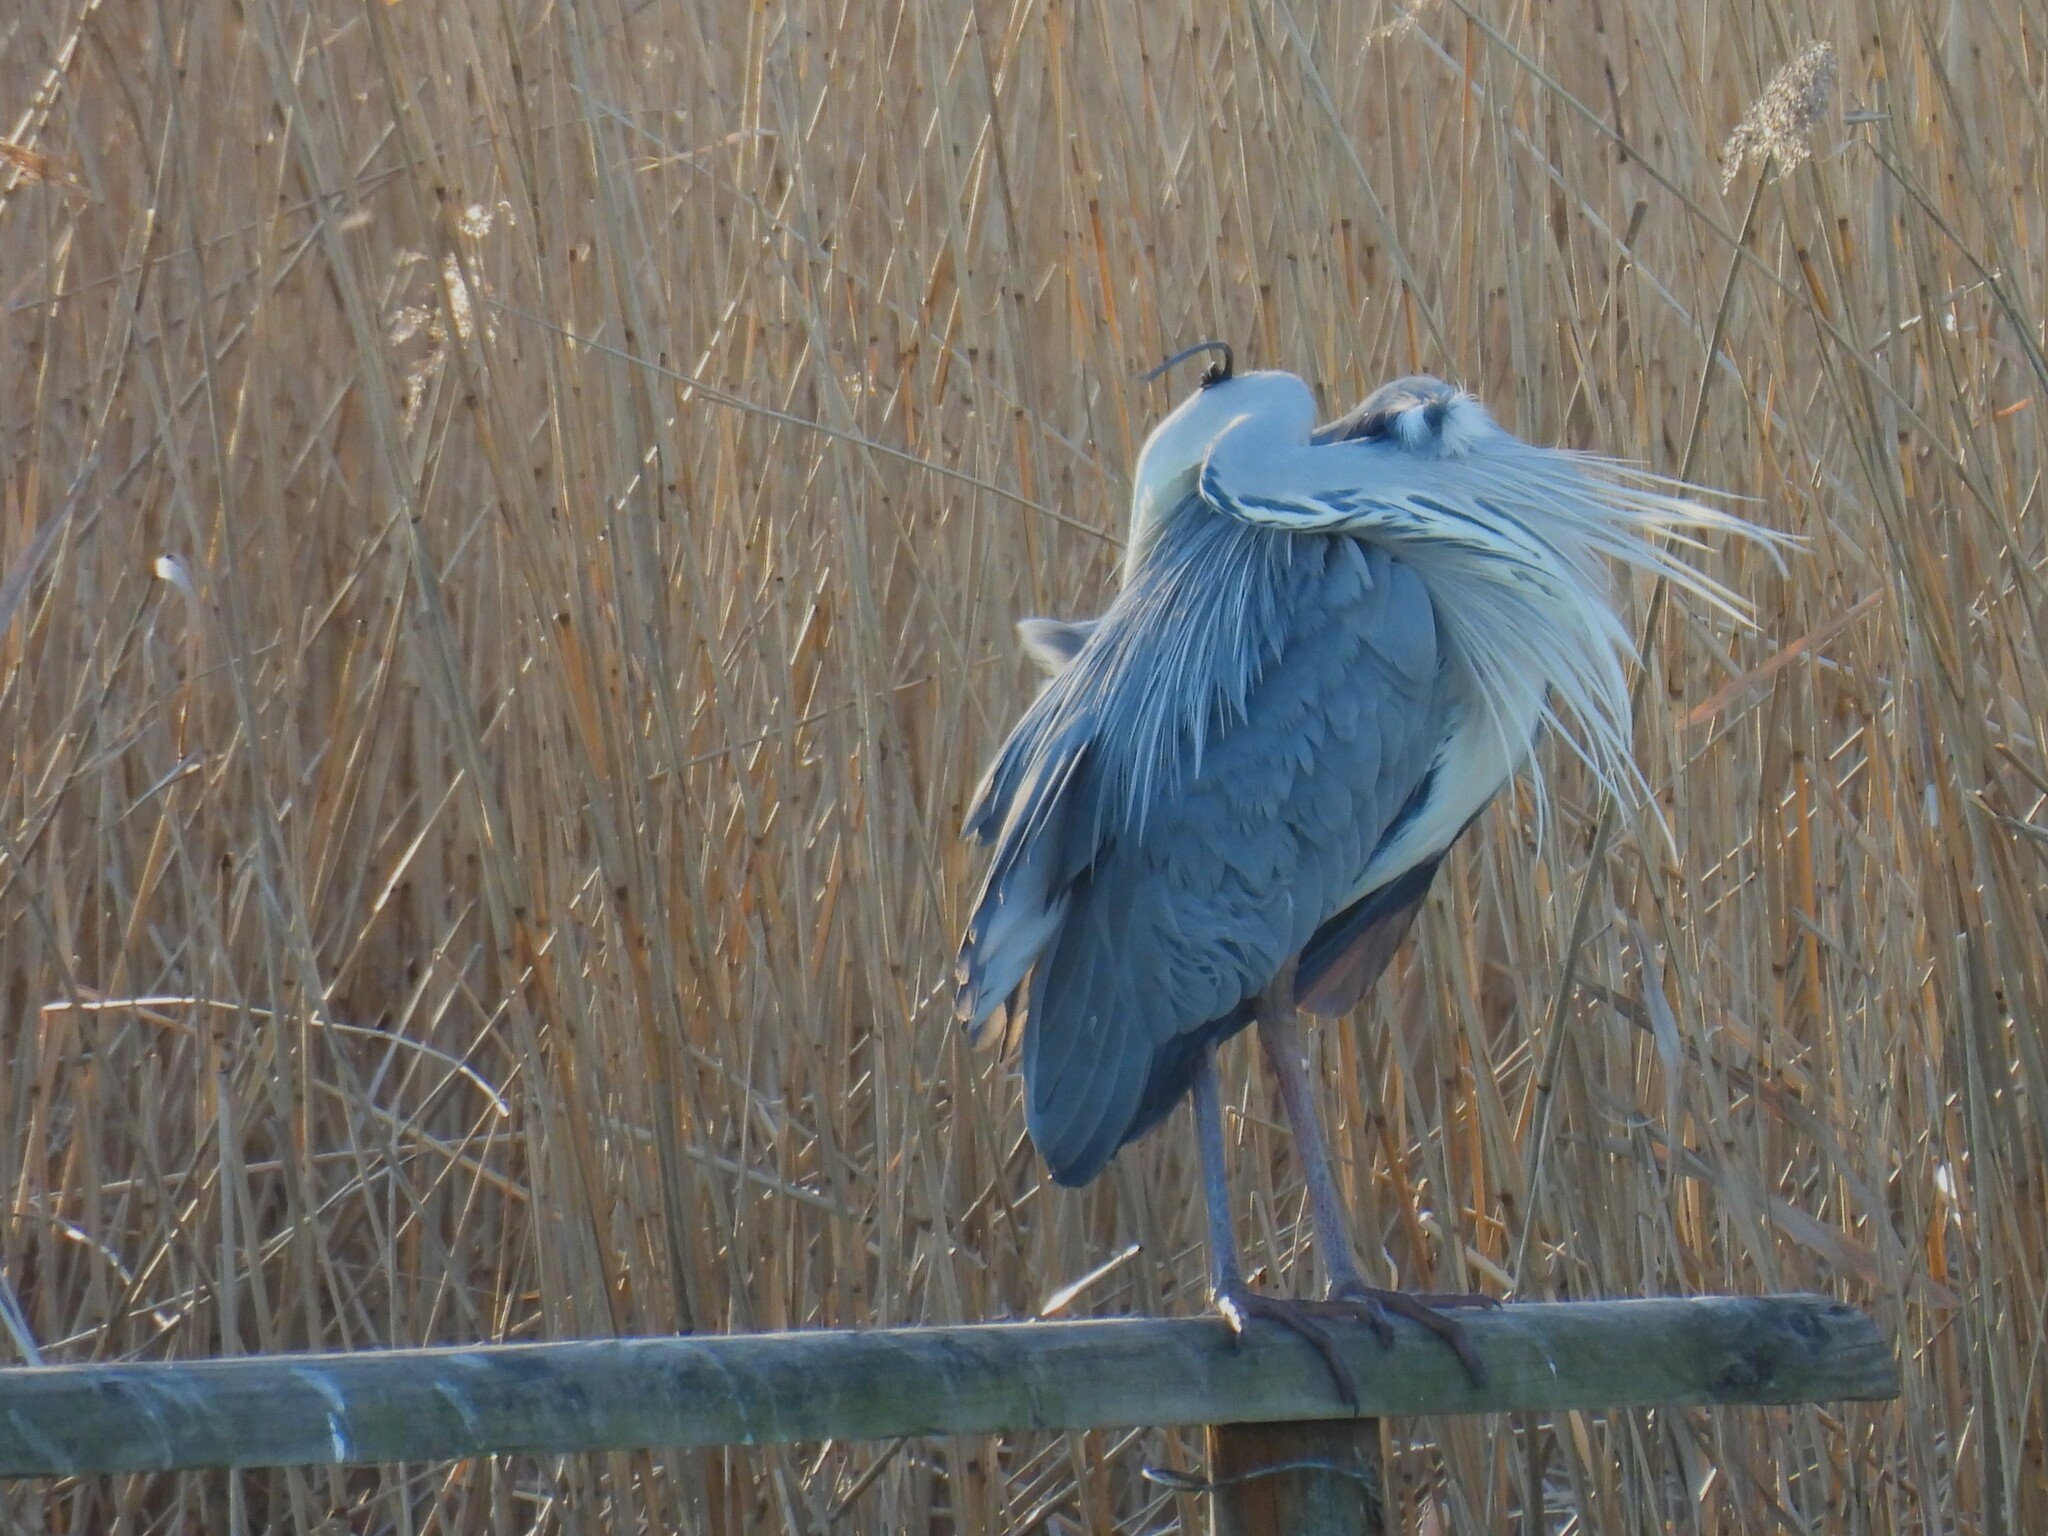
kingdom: Animalia
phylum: Chordata
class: Aves
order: Pelecaniformes
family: Ardeidae
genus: Ardea
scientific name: Ardea cinerea
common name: Grey heron
